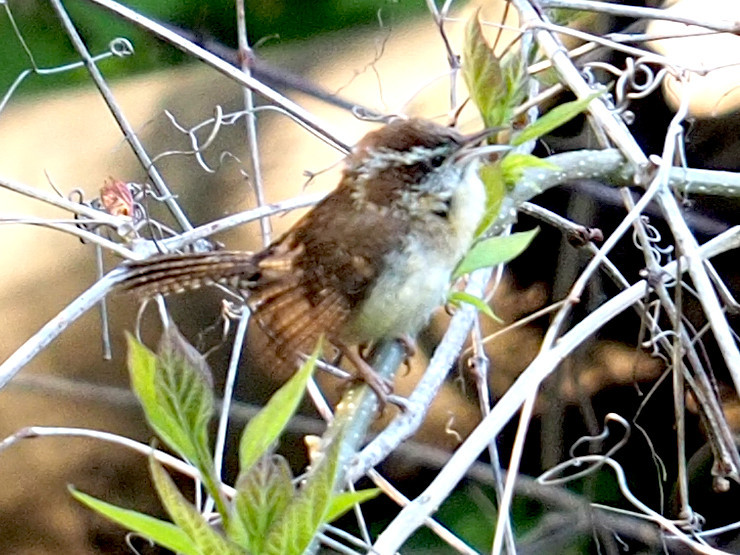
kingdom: Animalia
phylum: Chordata
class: Aves
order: Passeriformes
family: Troglodytidae
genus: Thryothorus
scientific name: Thryothorus ludovicianus
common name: Carolina wren
